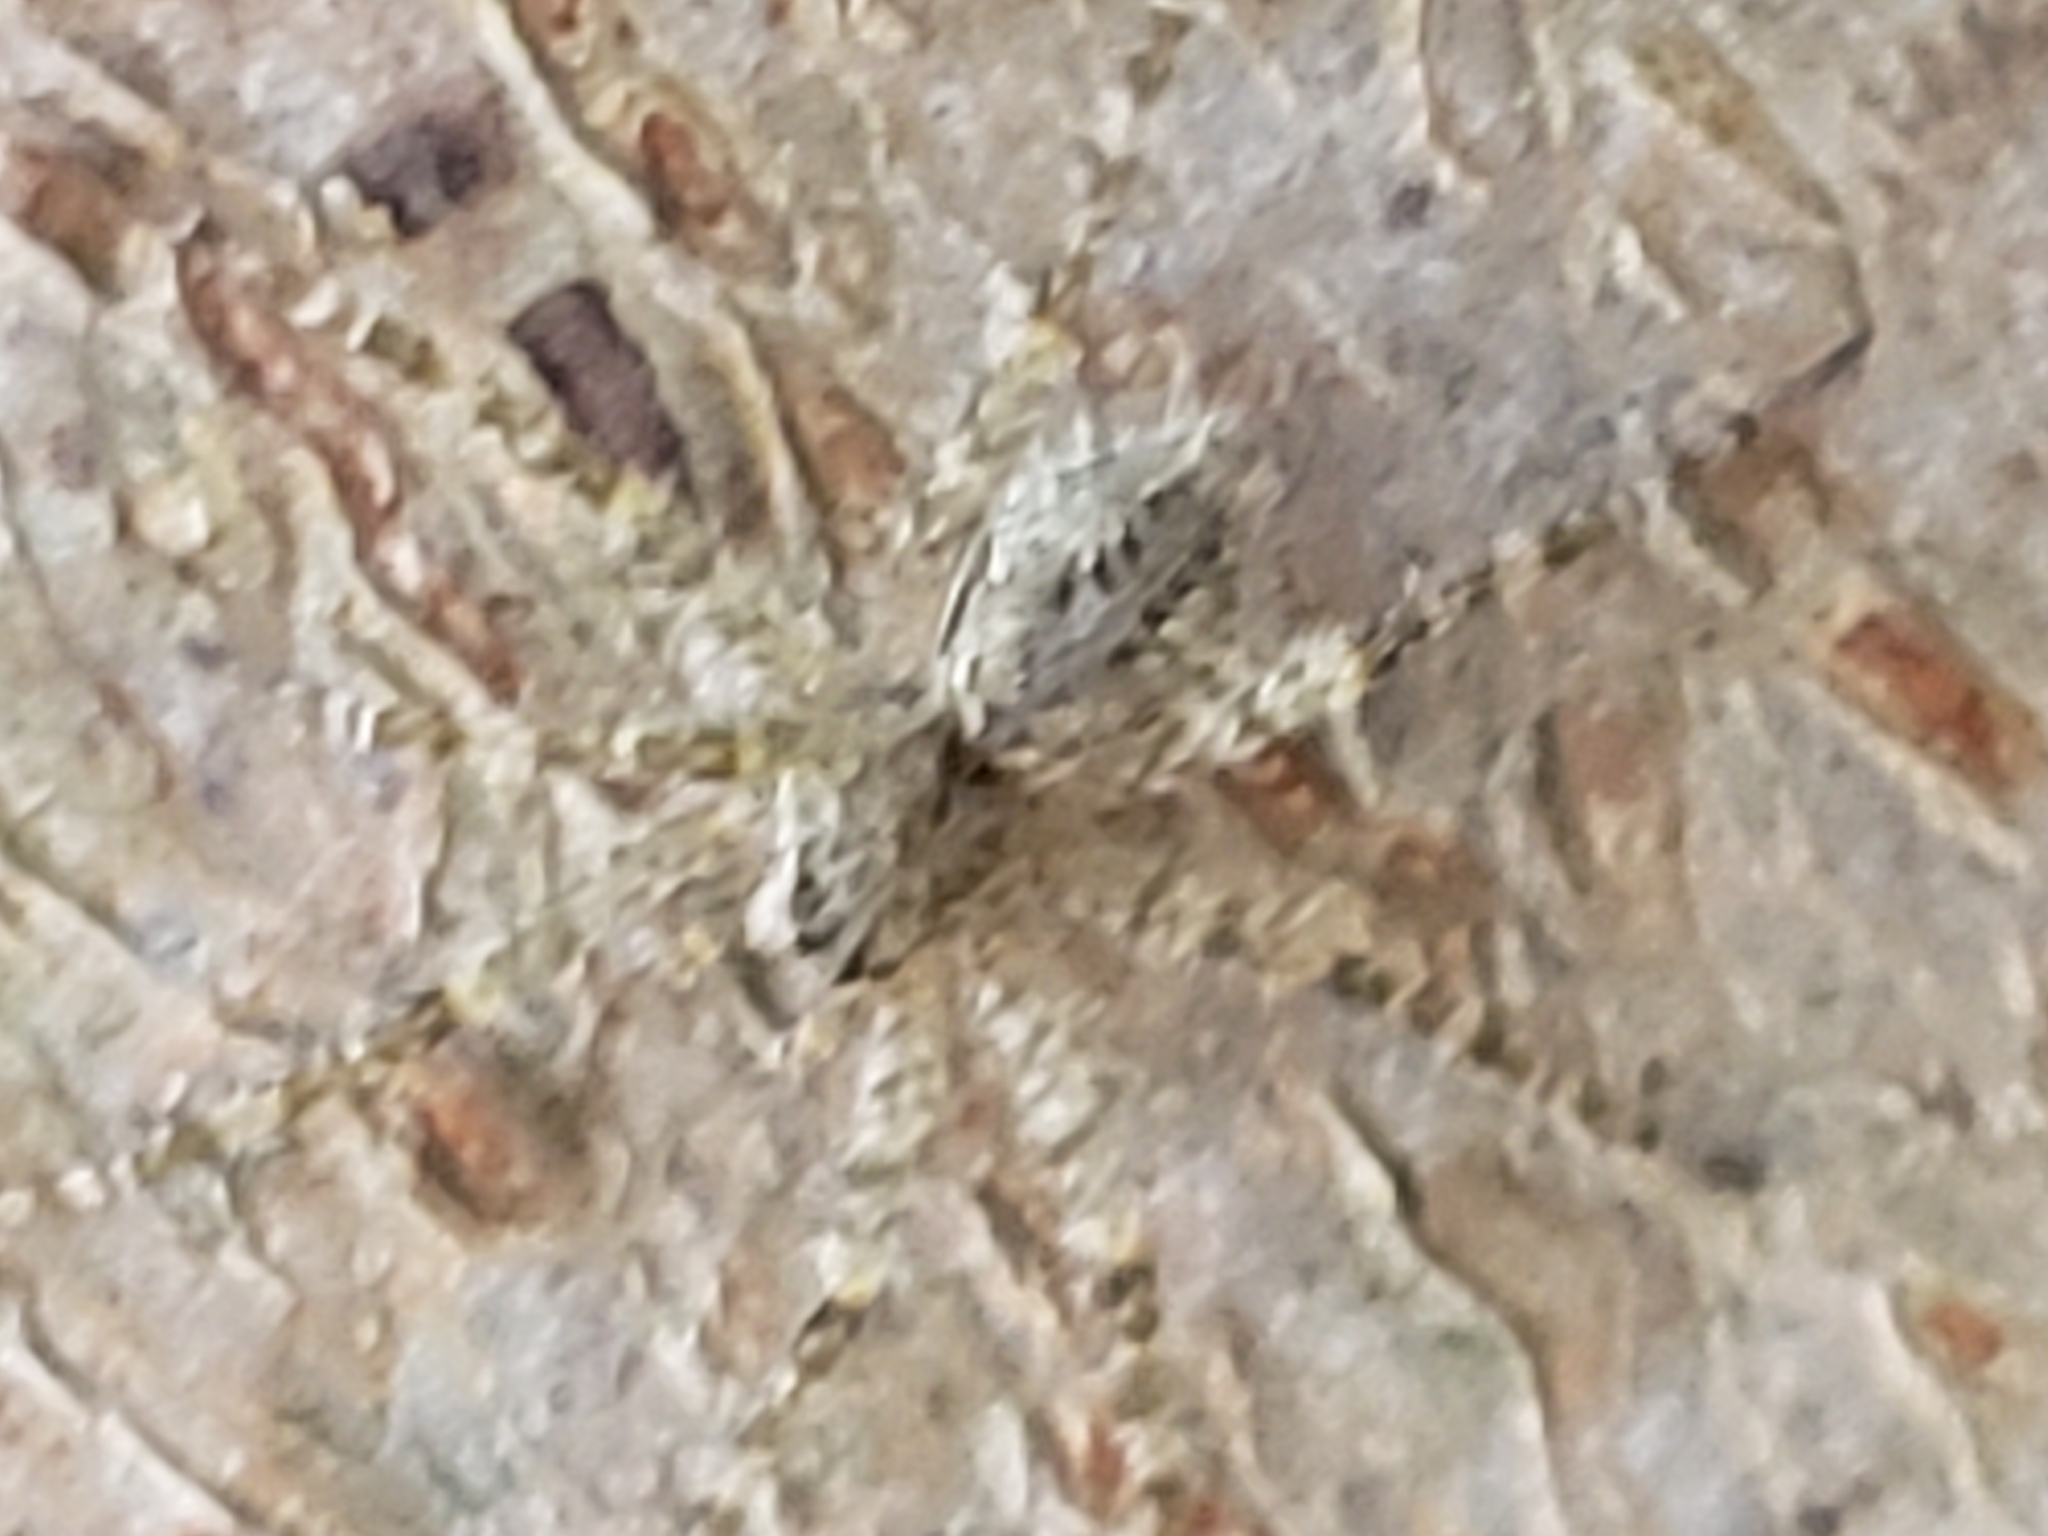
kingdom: Animalia
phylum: Arthropoda
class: Arachnida
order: Araneae
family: Pisauridae
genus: Dolomedes
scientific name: Dolomedes albineus
